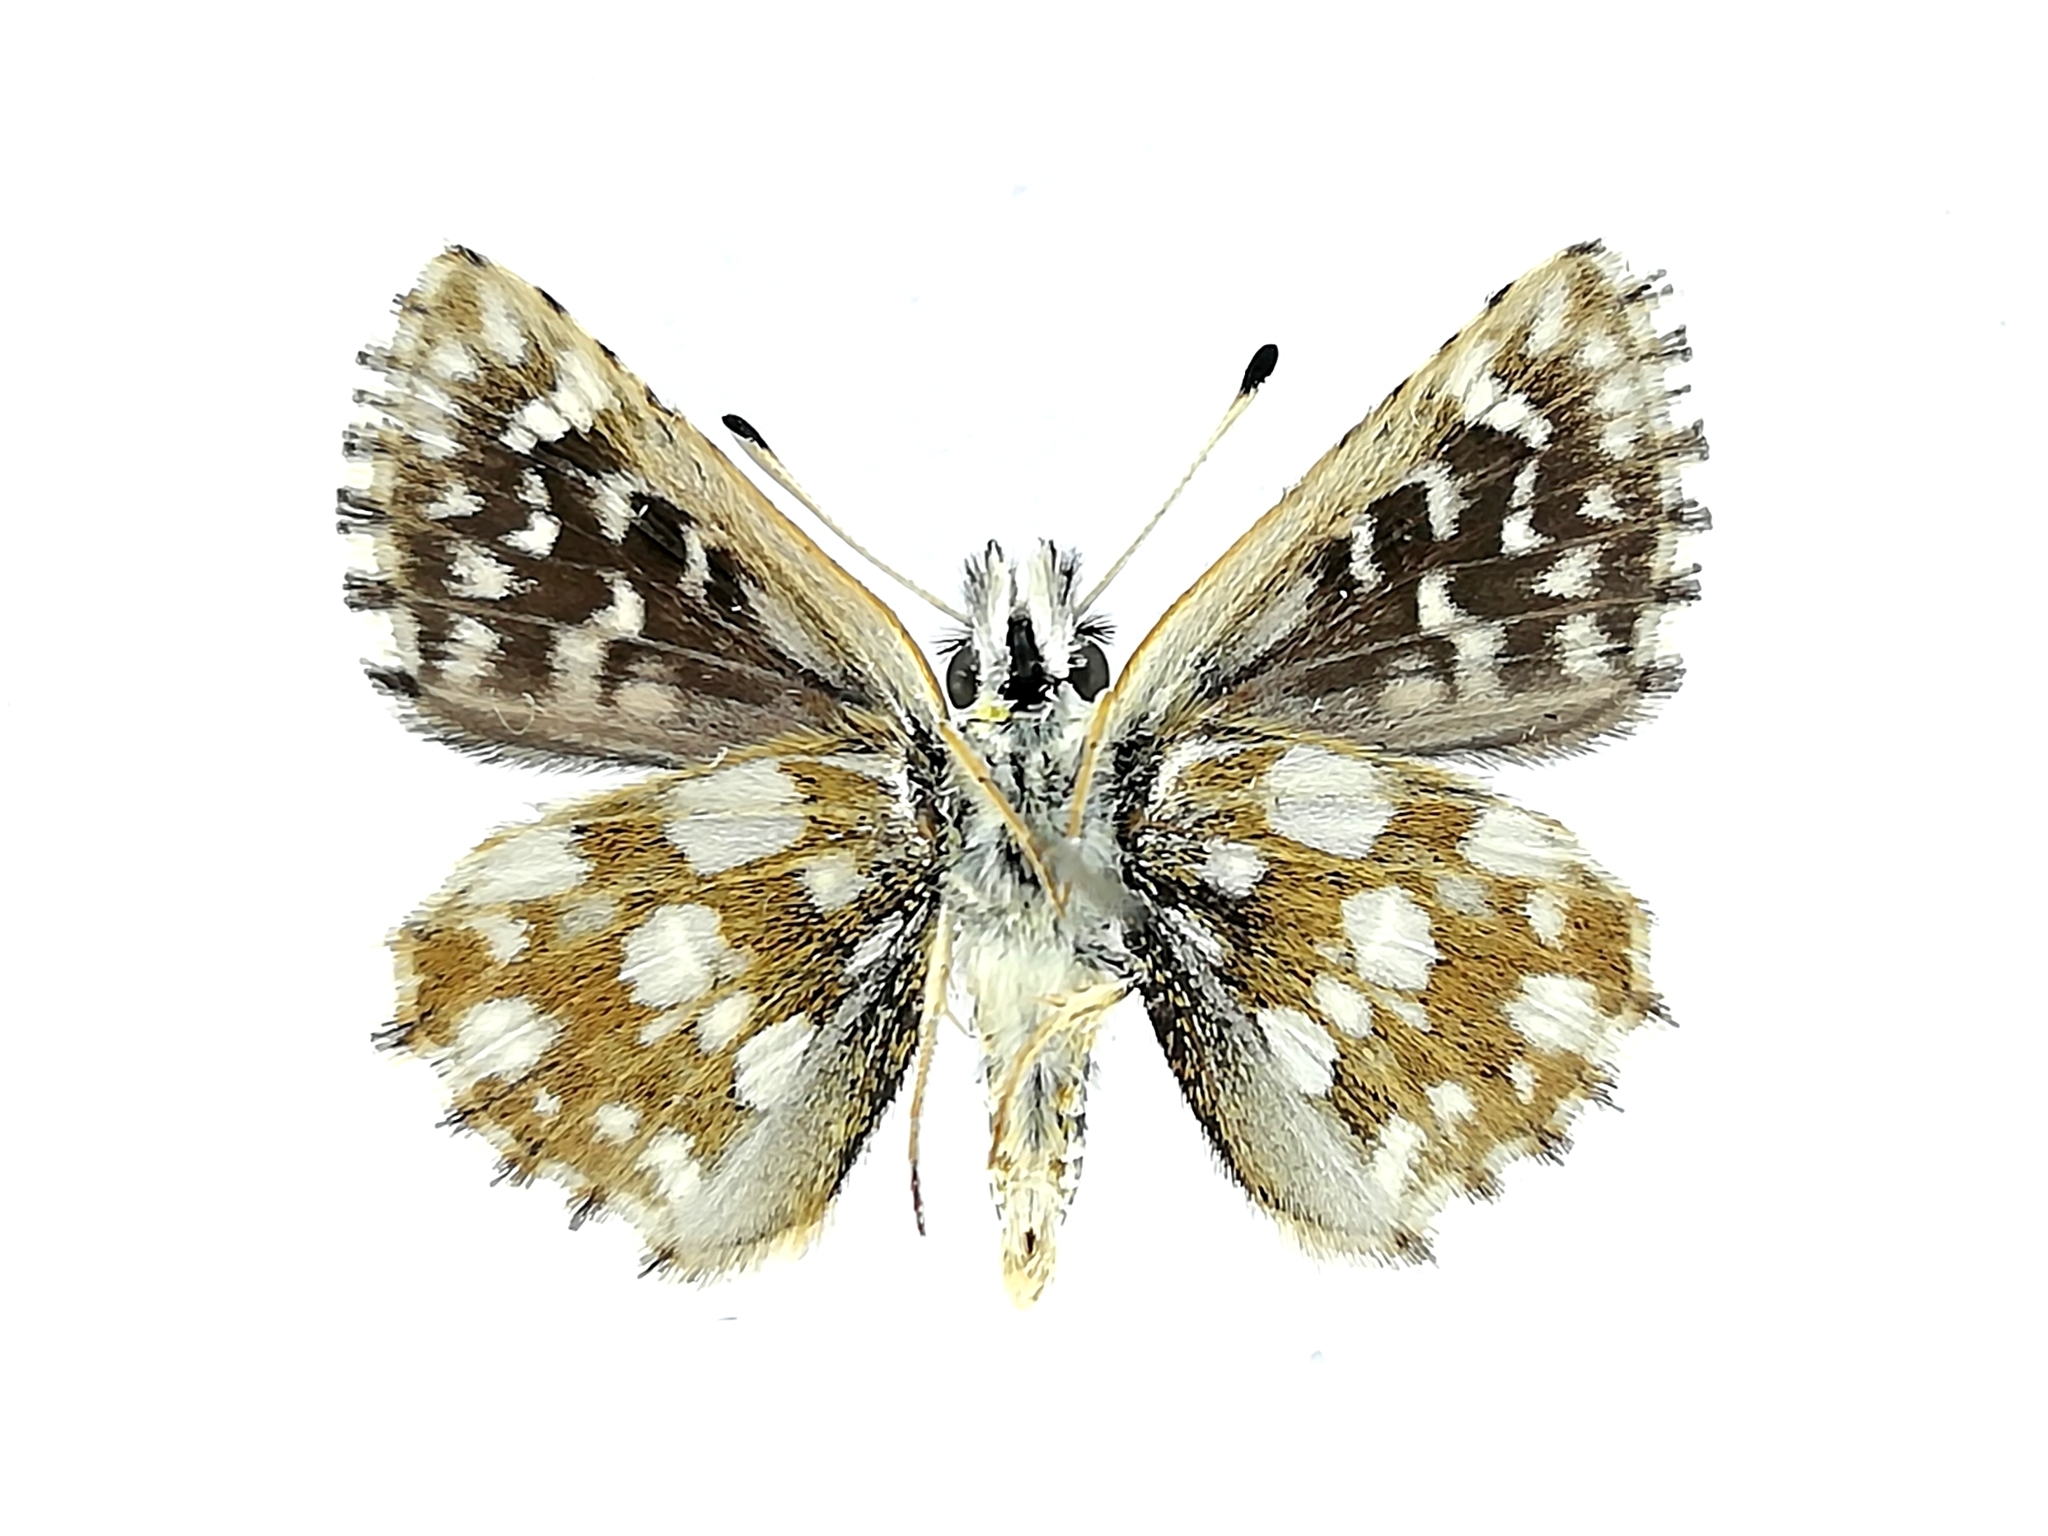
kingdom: Animalia
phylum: Arthropoda
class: Insecta
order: Lepidoptera
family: Hesperiidae
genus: Spialia
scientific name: Spialia sertorius
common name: Red underwing skipper
